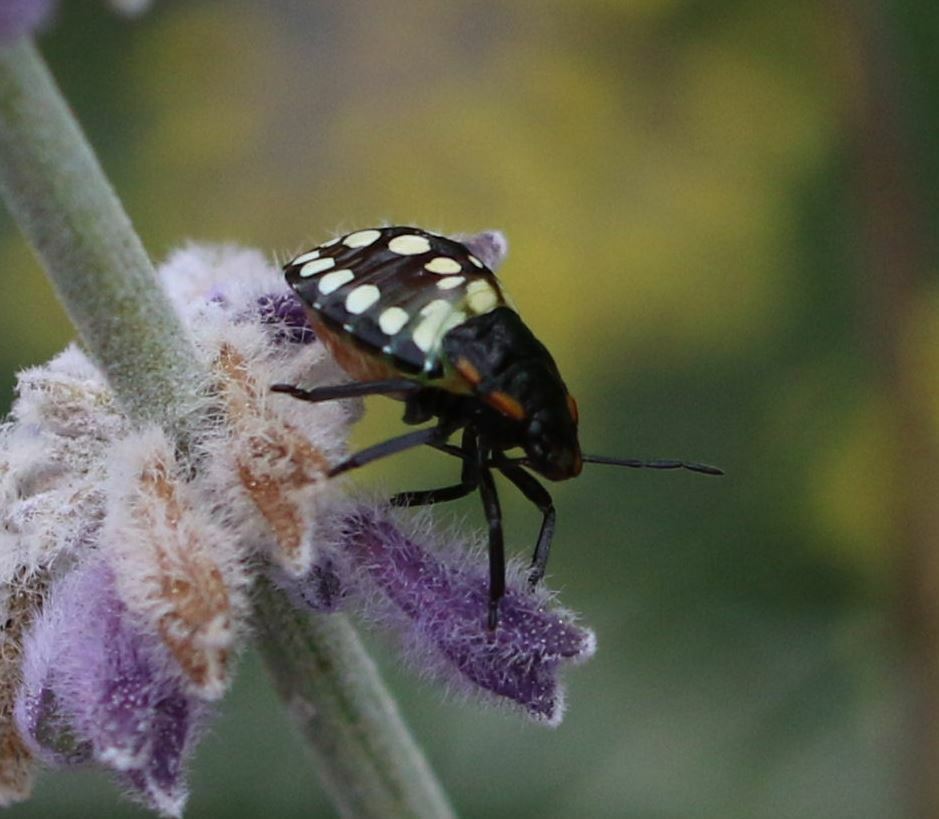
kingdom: Animalia
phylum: Arthropoda
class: Insecta
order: Hemiptera
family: Pentatomidae
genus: Nezara
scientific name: Nezara viridula
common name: Southern green stink bug
